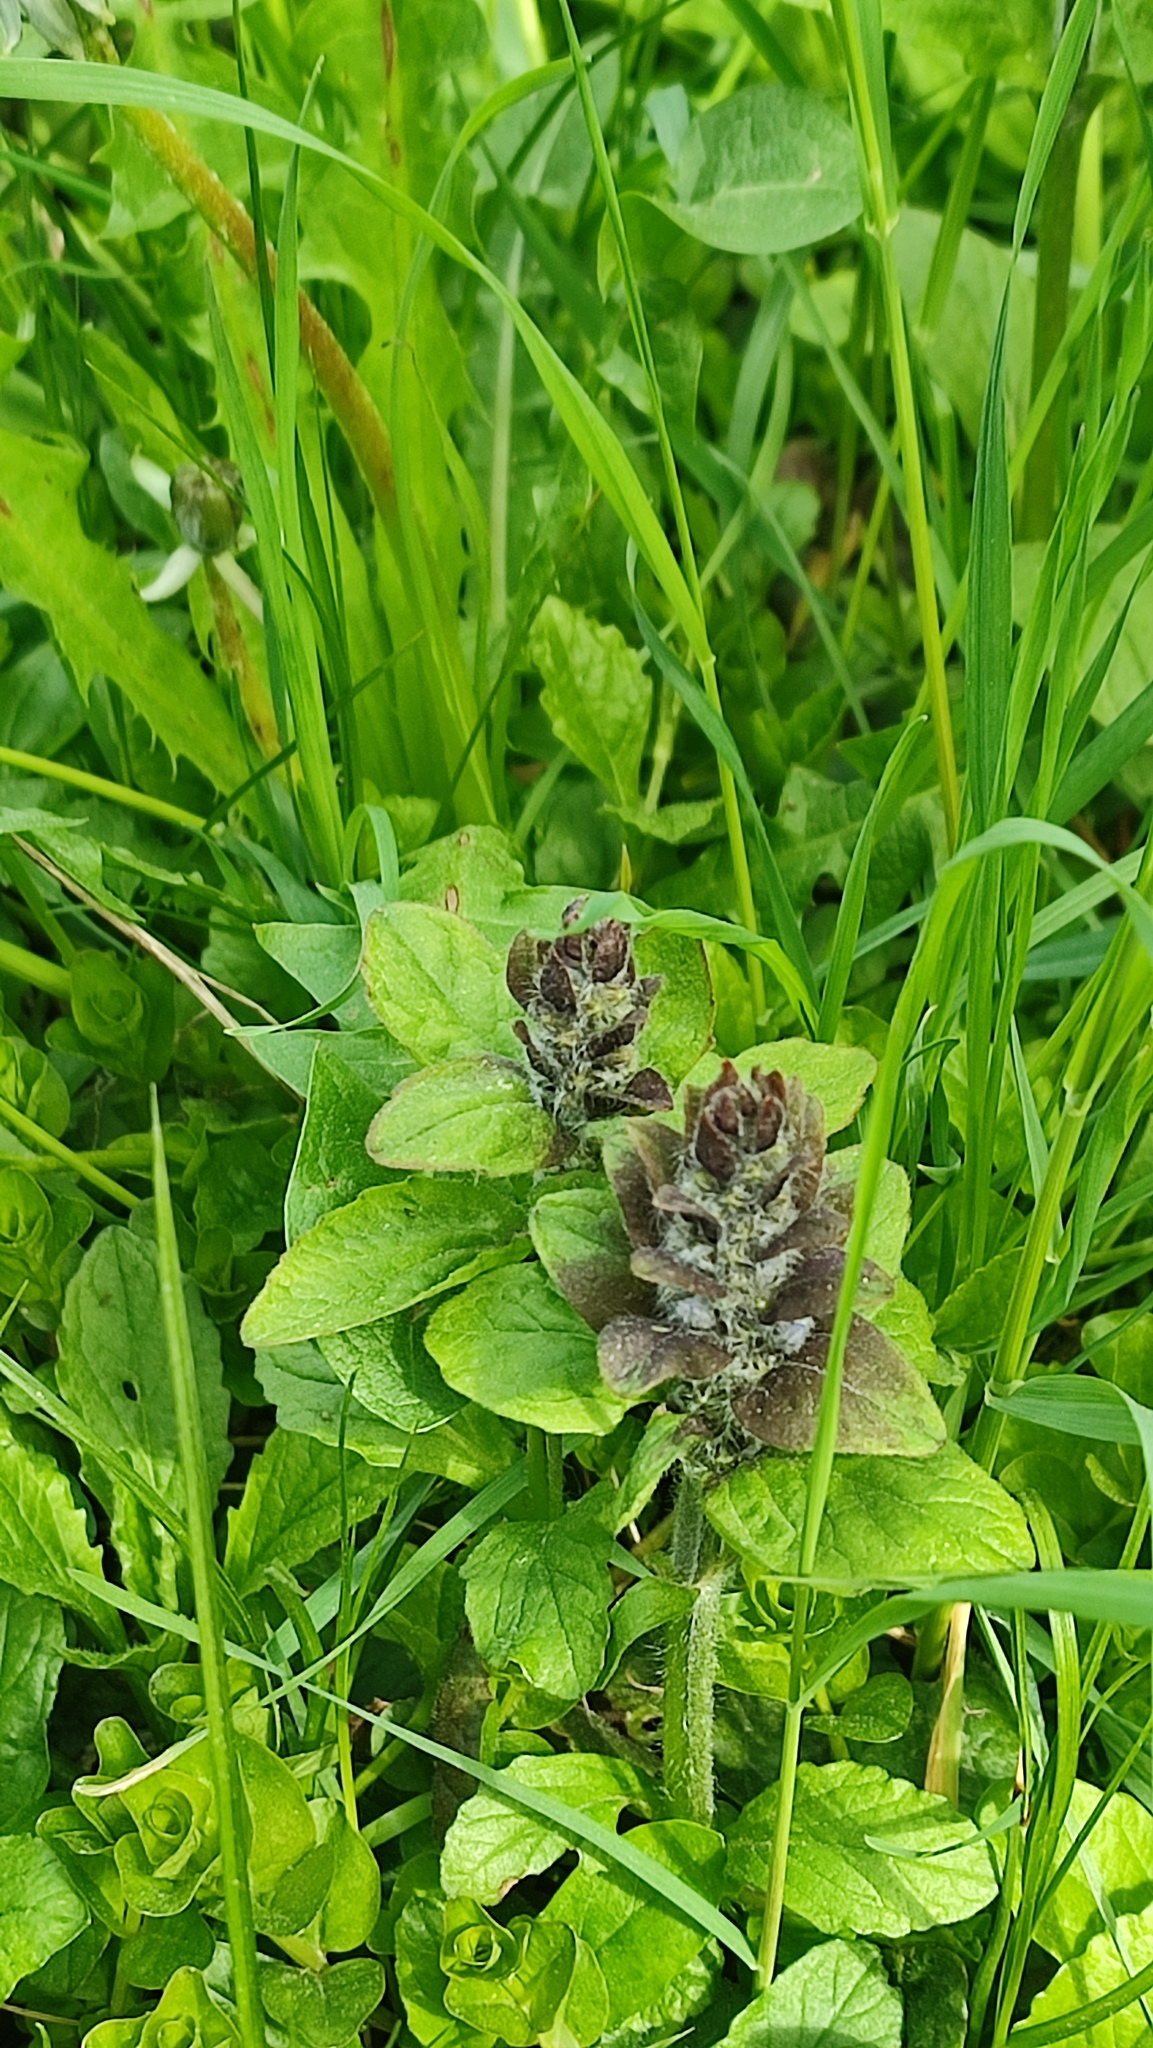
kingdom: Plantae
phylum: Tracheophyta
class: Magnoliopsida
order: Lamiales
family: Lamiaceae
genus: Ajuga
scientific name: Ajuga reptans
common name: Bugle
